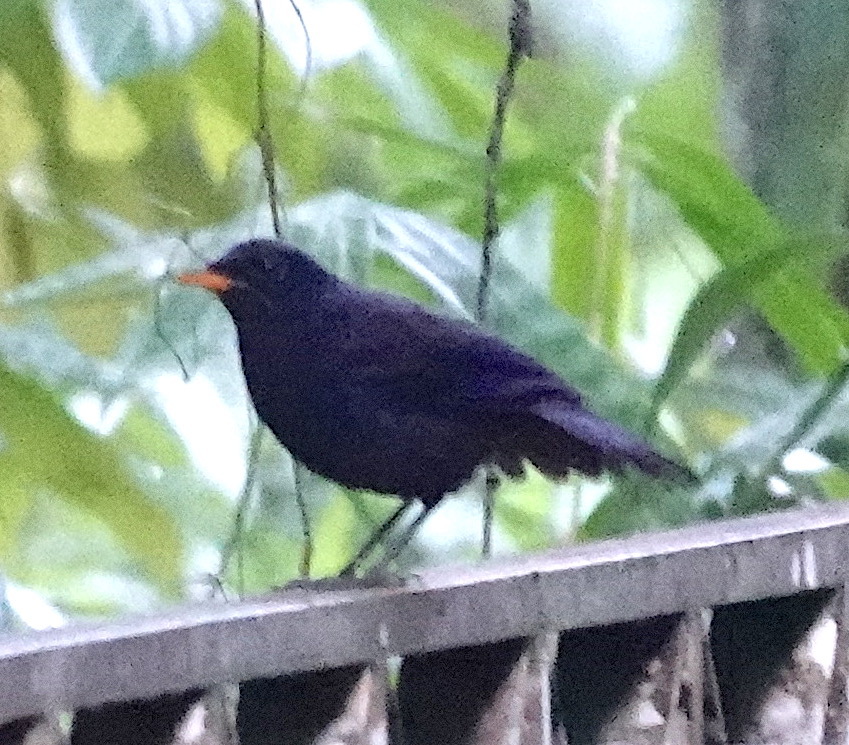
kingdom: Animalia
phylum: Chordata
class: Aves
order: Passeriformes
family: Muscicapidae
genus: Myophonus
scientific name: Myophonus robinsoni
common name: Malayan whistling-thrush
